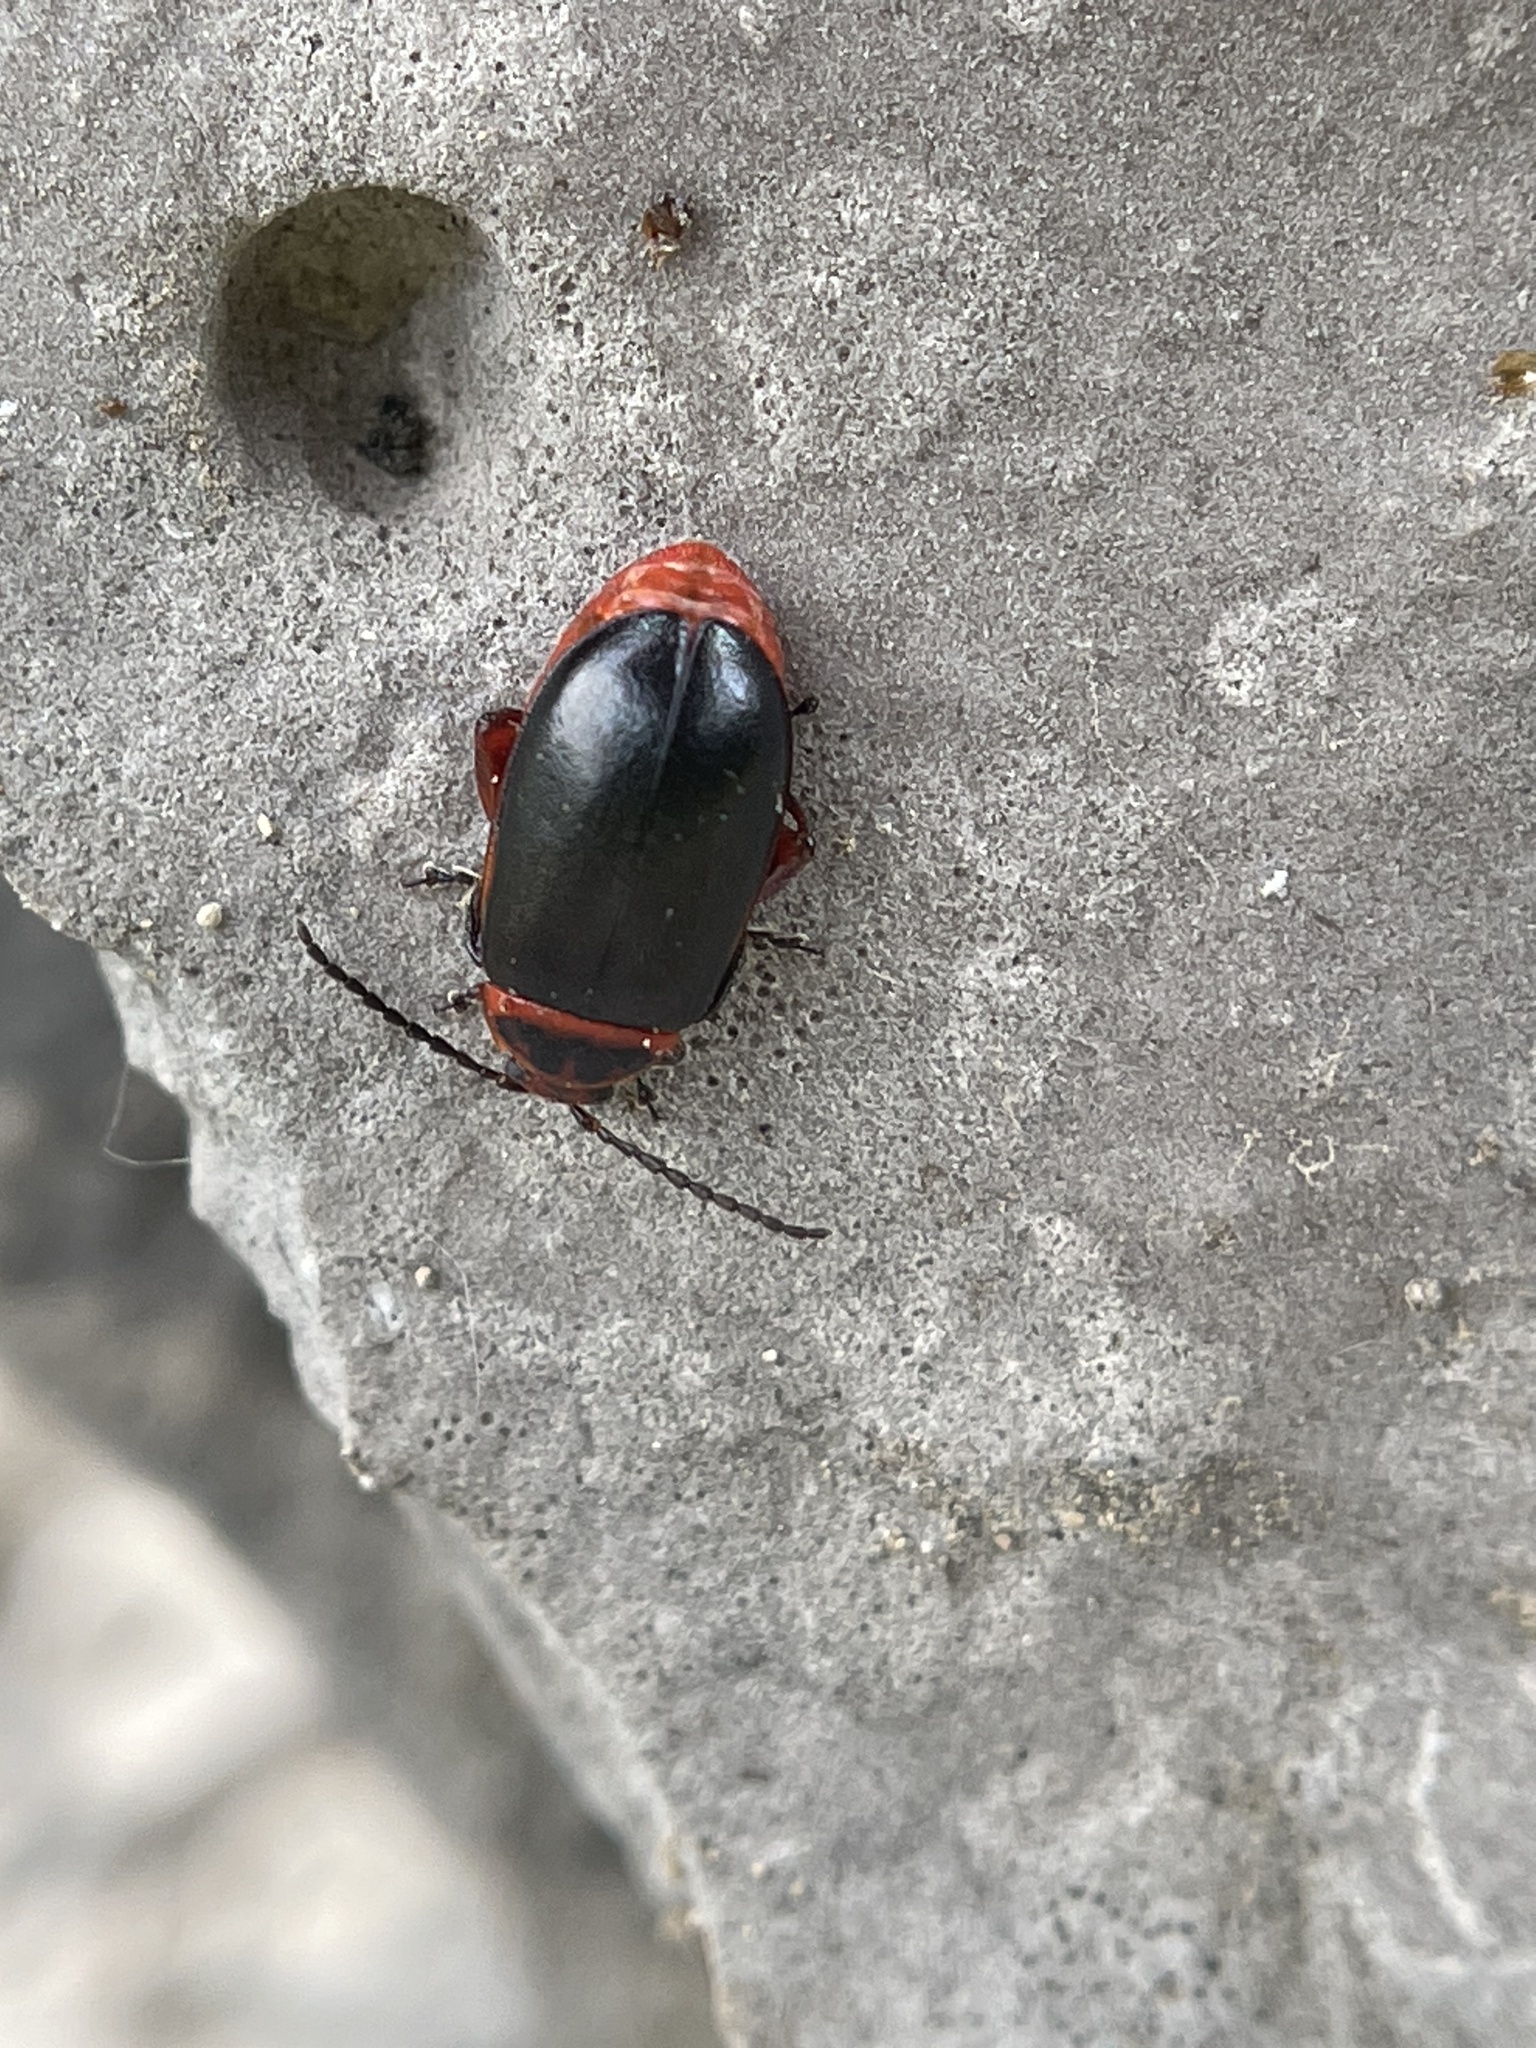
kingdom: Animalia
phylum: Arthropoda
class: Insecta
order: Coleoptera
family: Chrysomelidae
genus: Kuschelina
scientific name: Kuschelina vians
